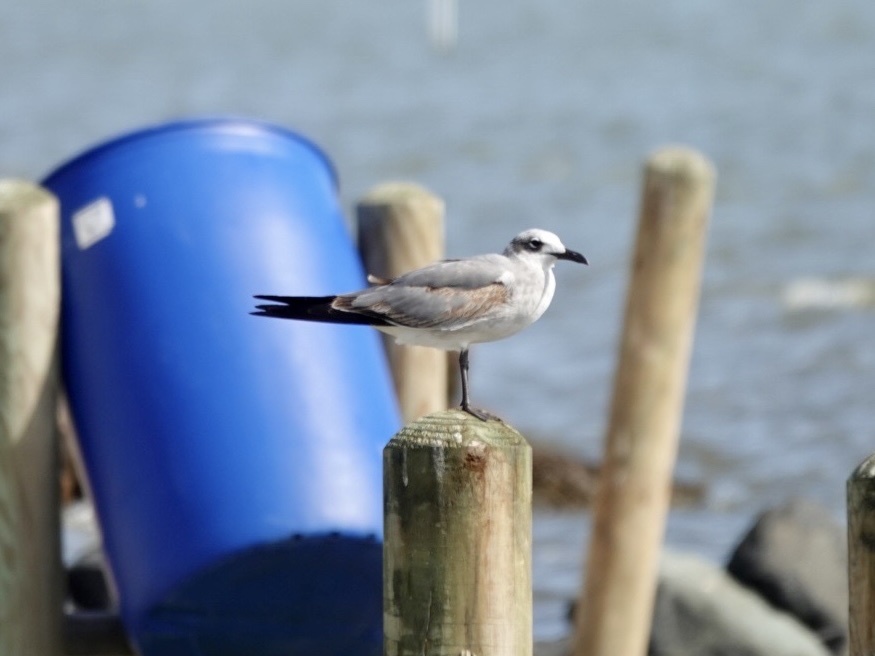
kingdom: Animalia
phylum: Chordata
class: Aves
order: Charadriiformes
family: Laridae
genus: Leucophaeus
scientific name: Leucophaeus atricilla
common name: Laughing gull
